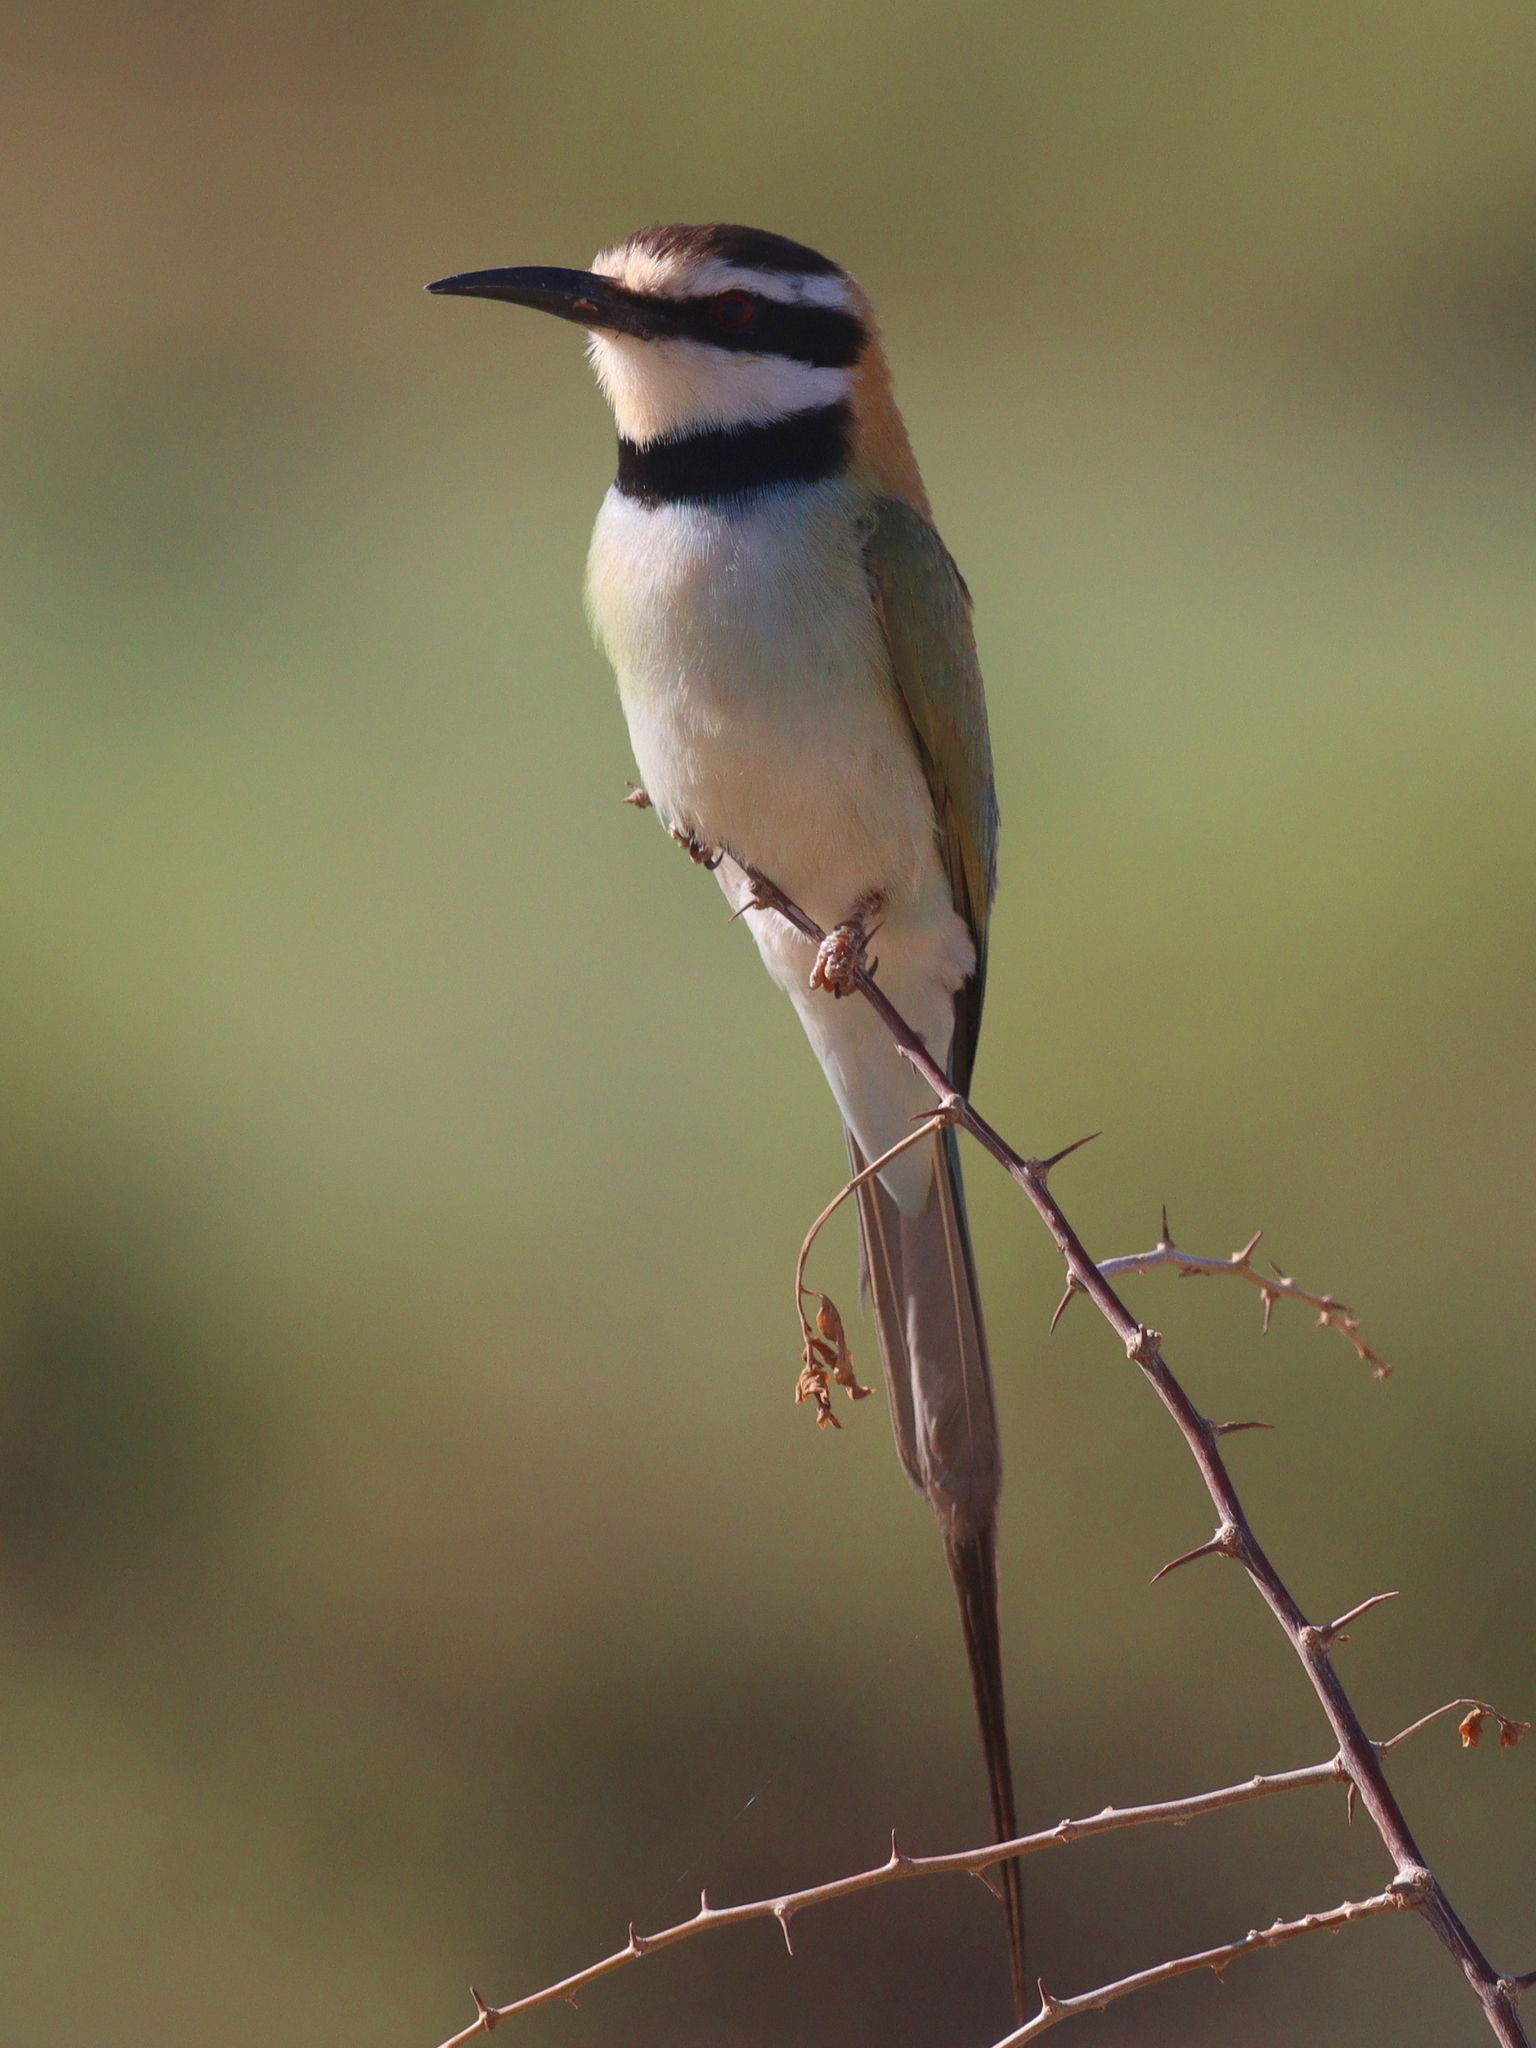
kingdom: Animalia
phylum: Chordata
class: Aves
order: Coraciiformes
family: Meropidae
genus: Merops
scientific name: Merops albicollis
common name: White-throated bee-eater
